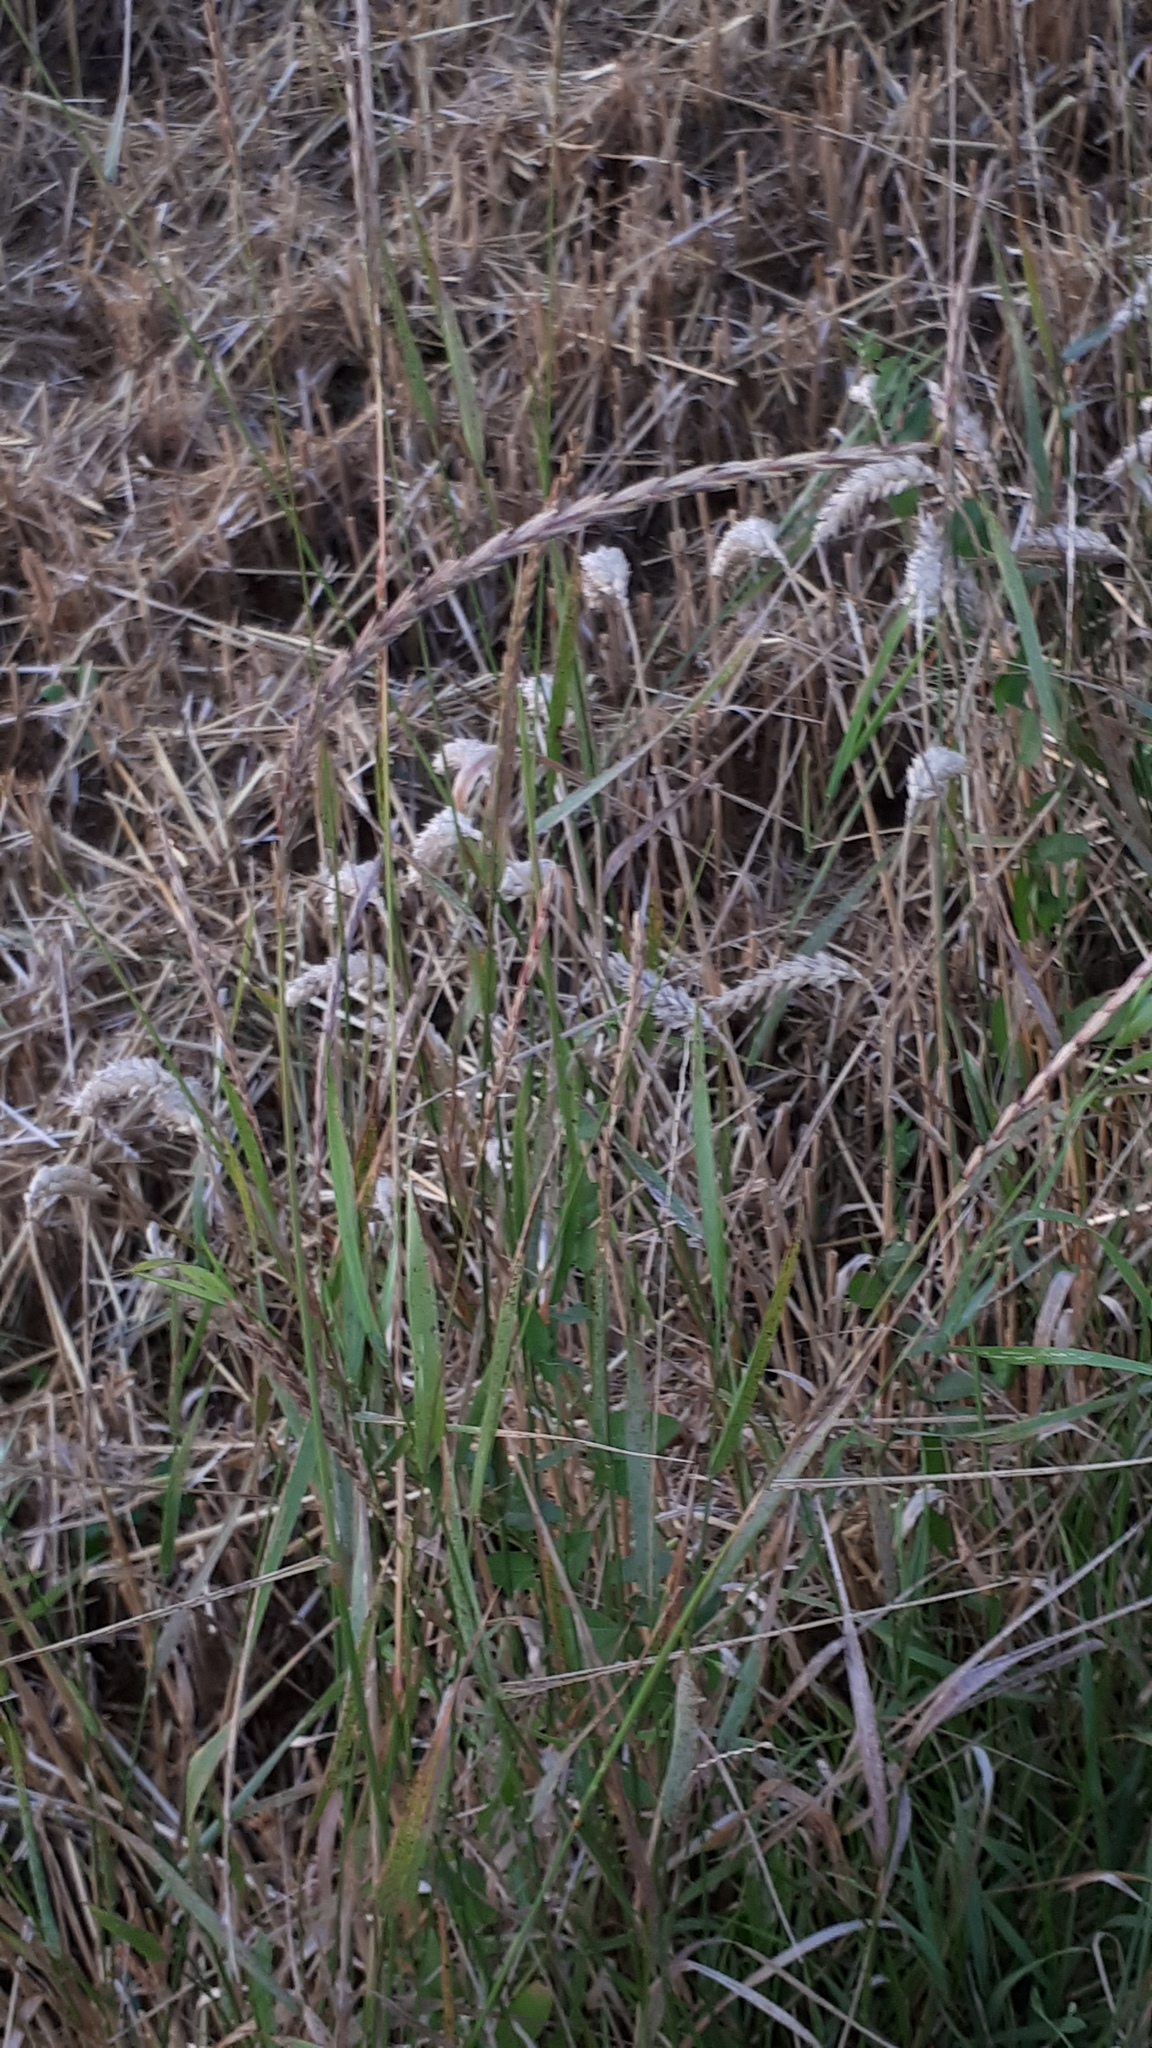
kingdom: Fungi
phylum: Ascomycota
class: Sordariomycetes
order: Hypocreales
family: Clavicipitaceae
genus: Claviceps
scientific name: Claviceps purpurea
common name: Rye ergot
